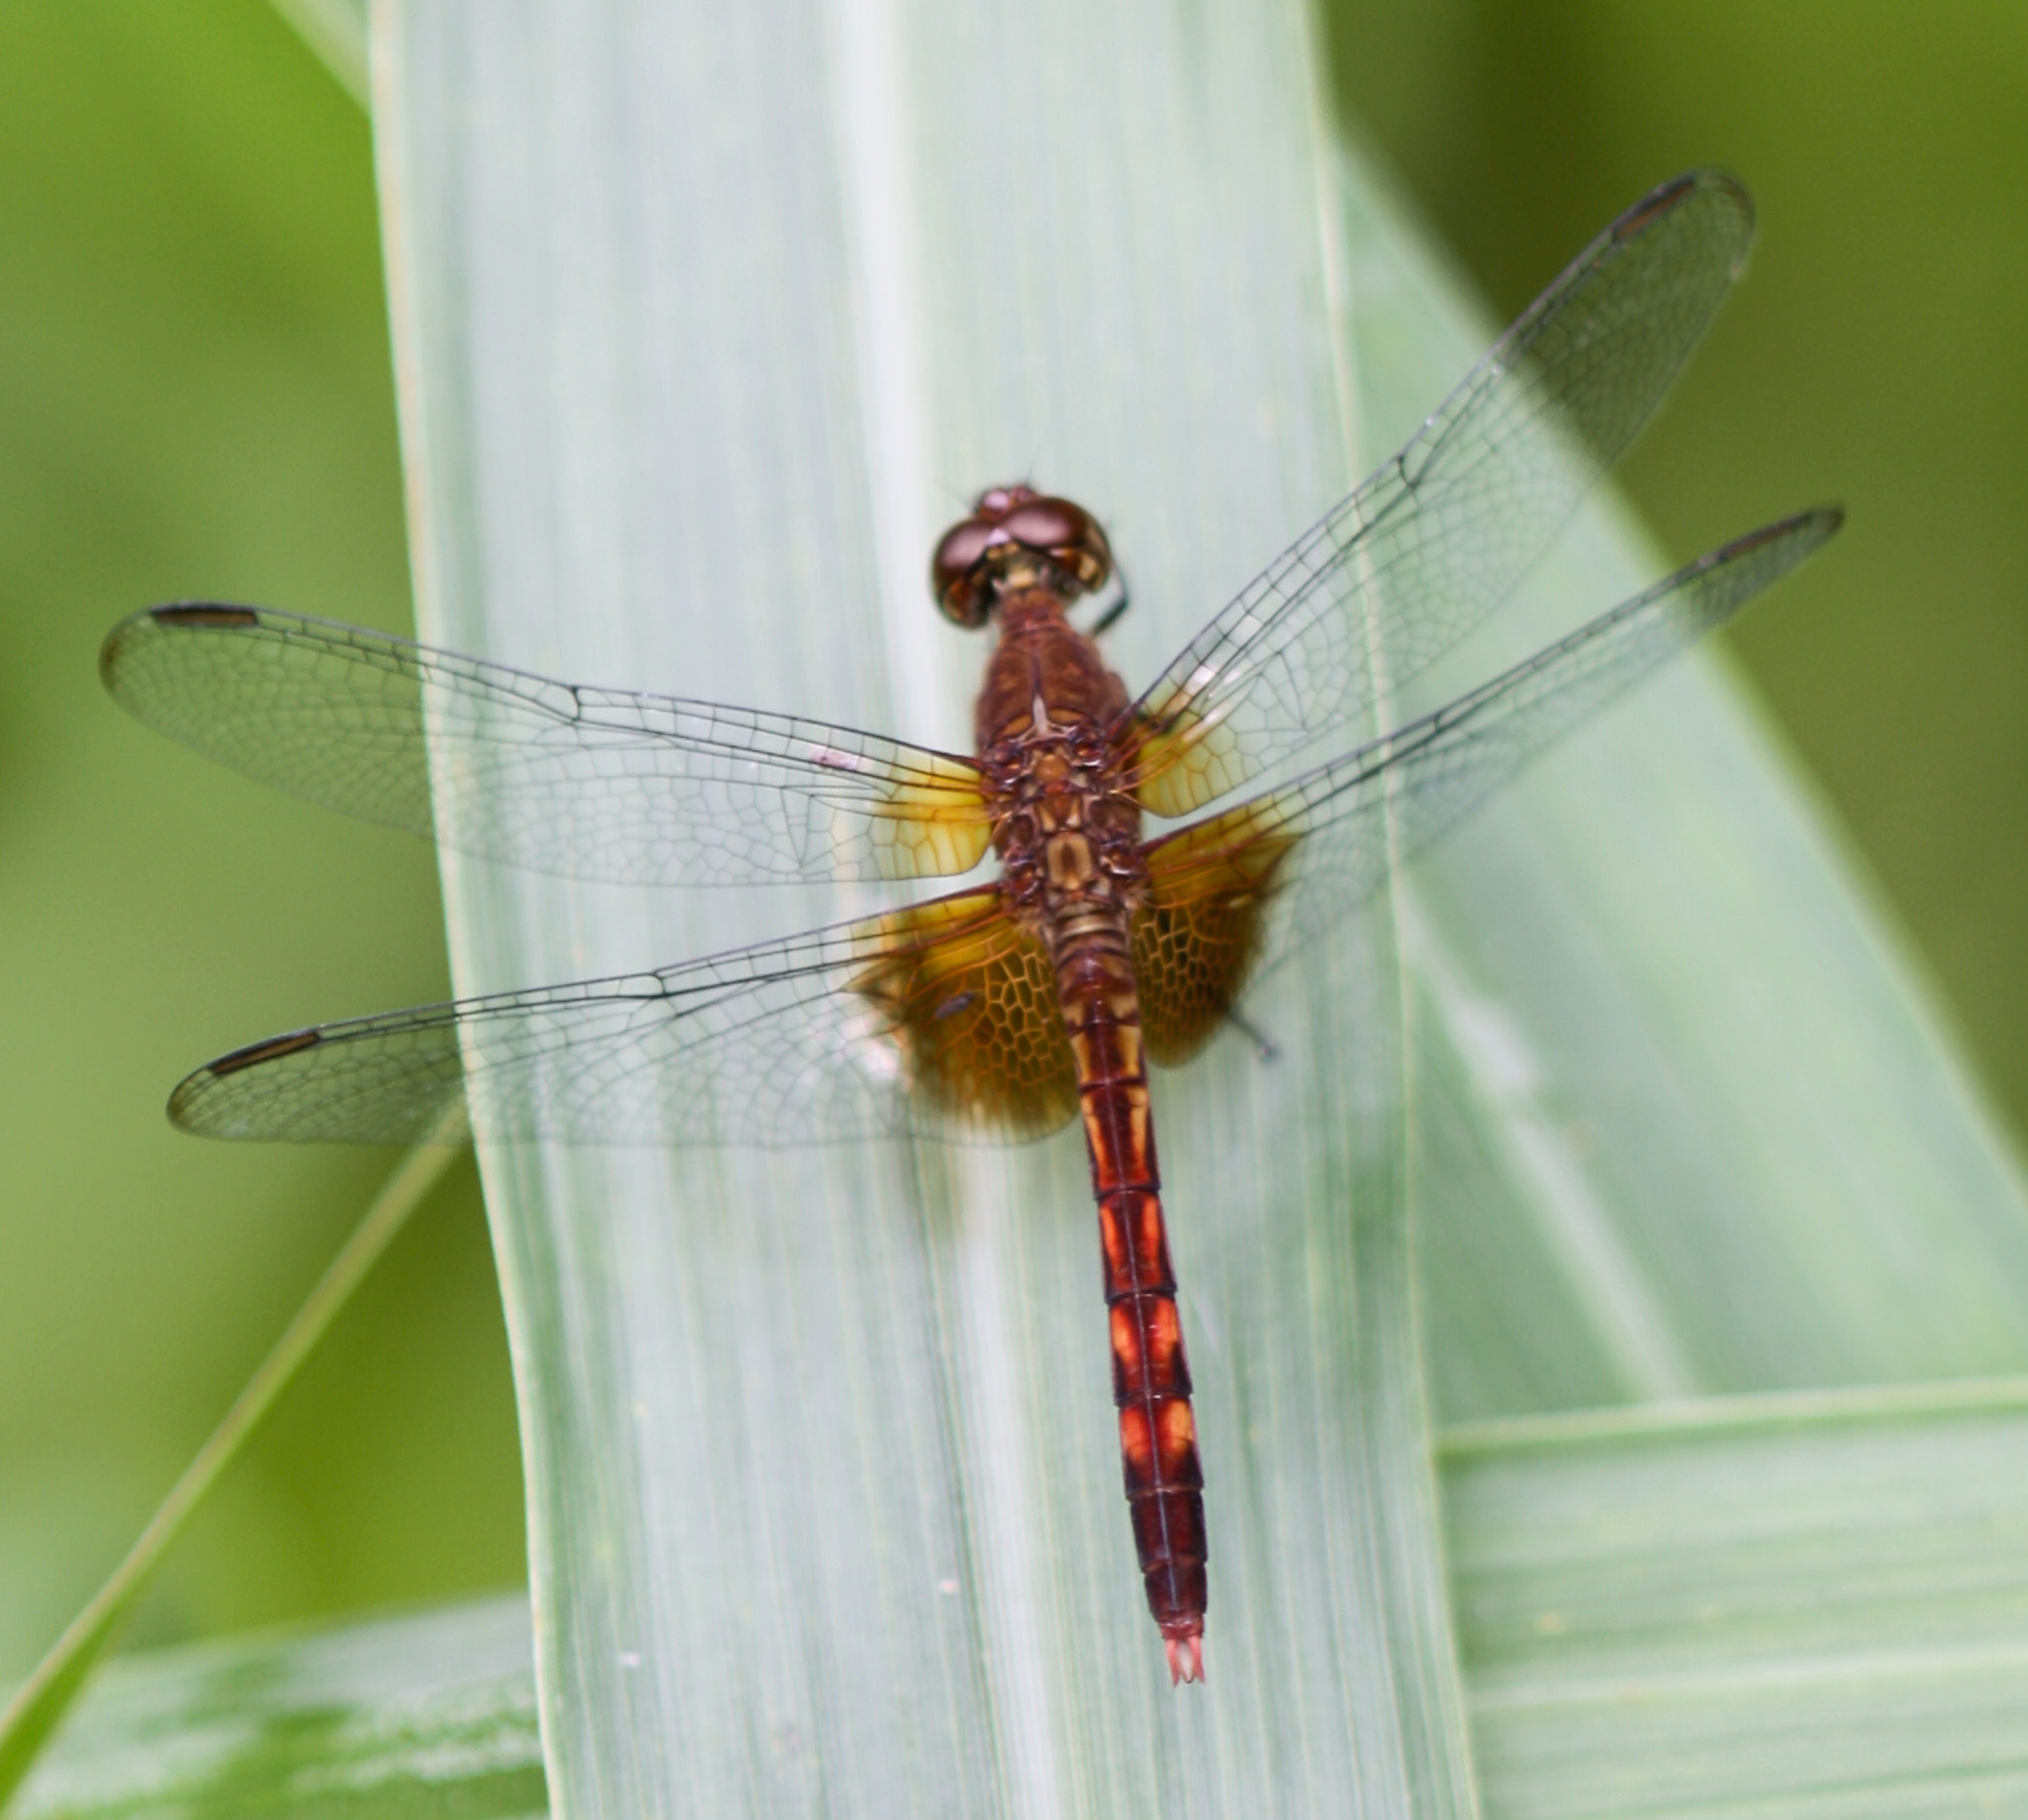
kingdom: Animalia
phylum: Arthropoda
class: Insecta
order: Odonata
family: Libellulidae
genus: Erythrodiplax
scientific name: Erythrodiplax fervida
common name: Red-mantled dragonlet
